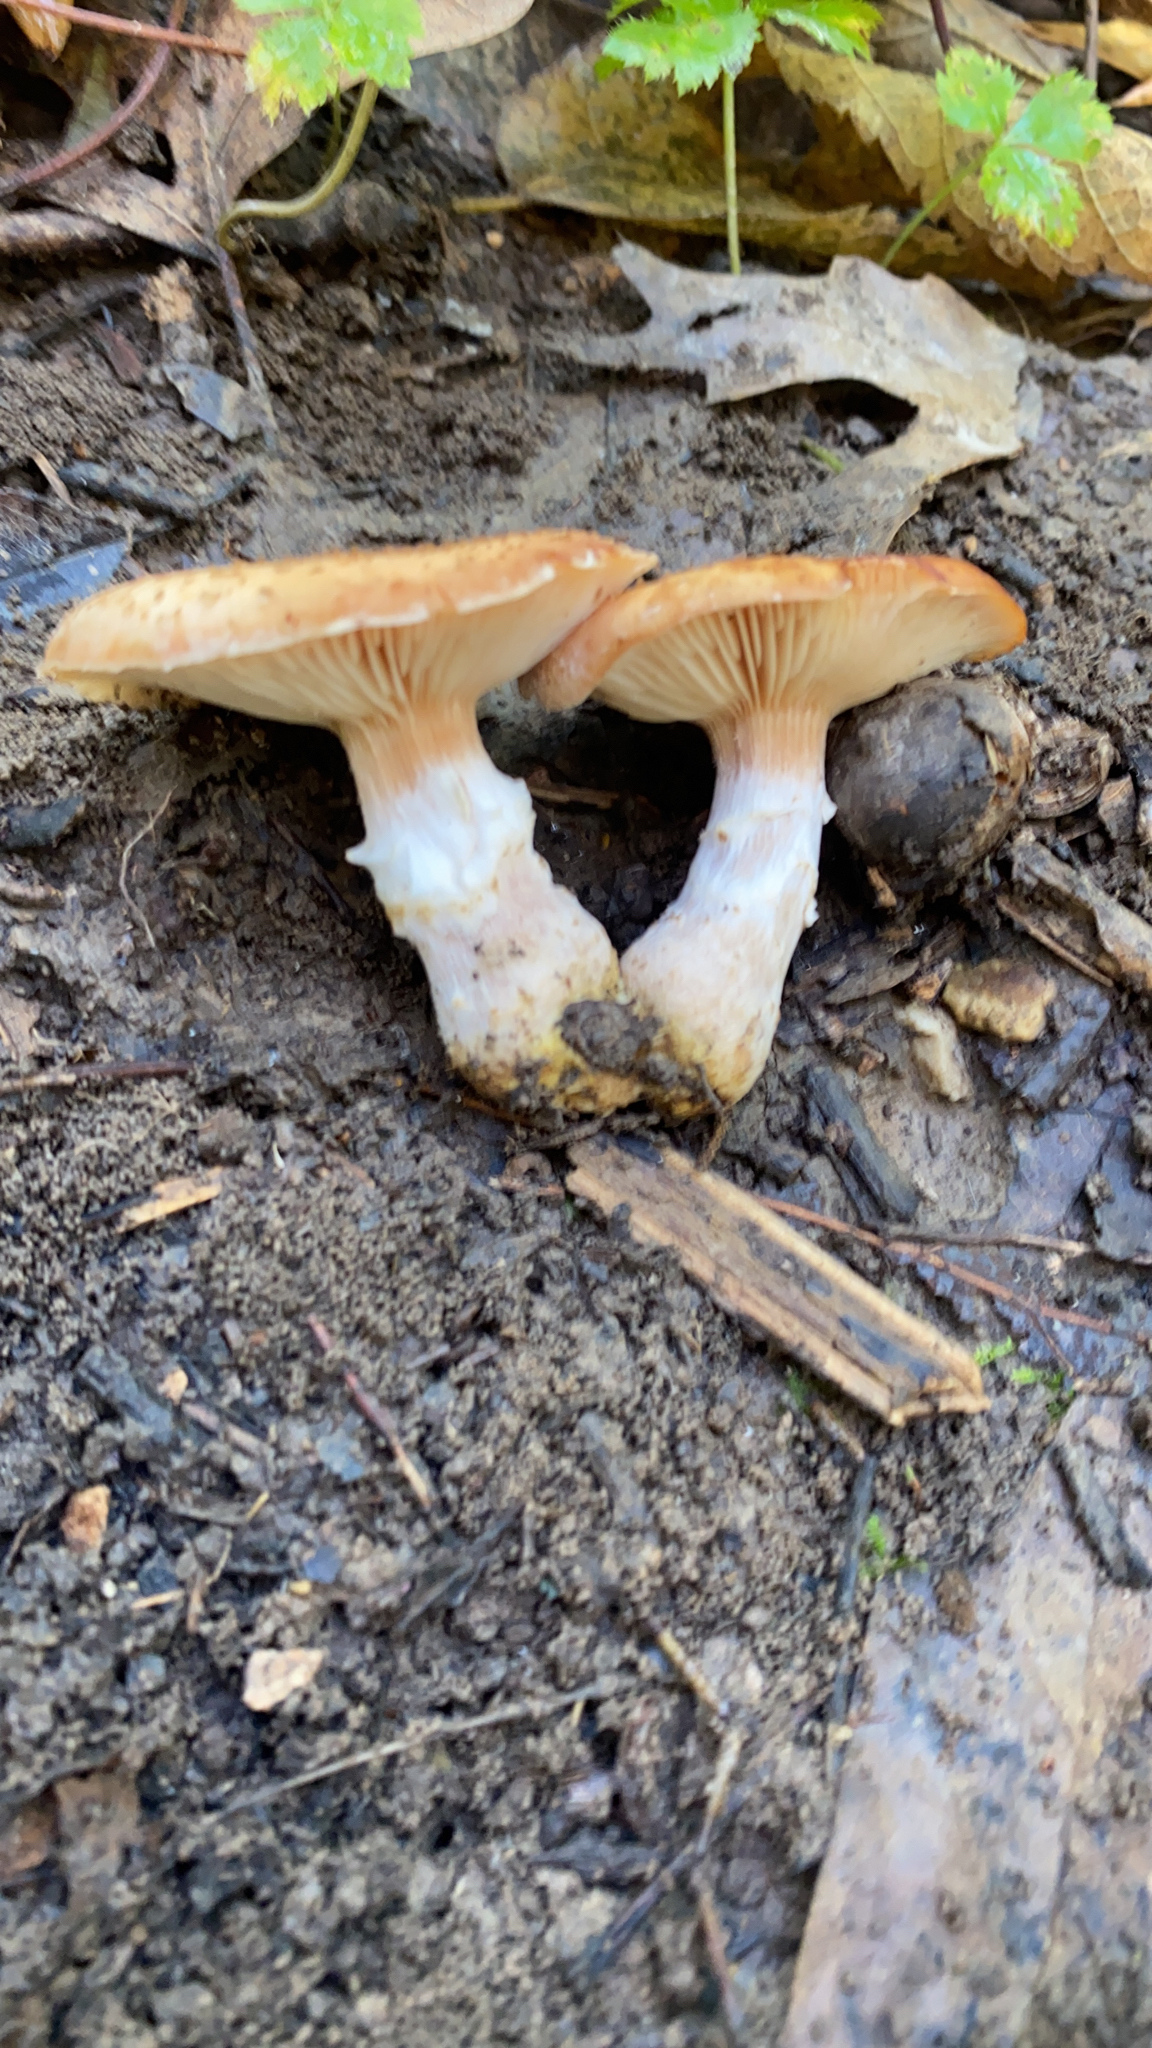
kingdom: Fungi
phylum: Basidiomycota
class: Agaricomycetes
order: Agaricales
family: Physalacriaceae
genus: Armillaria
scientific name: Armillaria gallica
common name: Bulbous honey fungus
